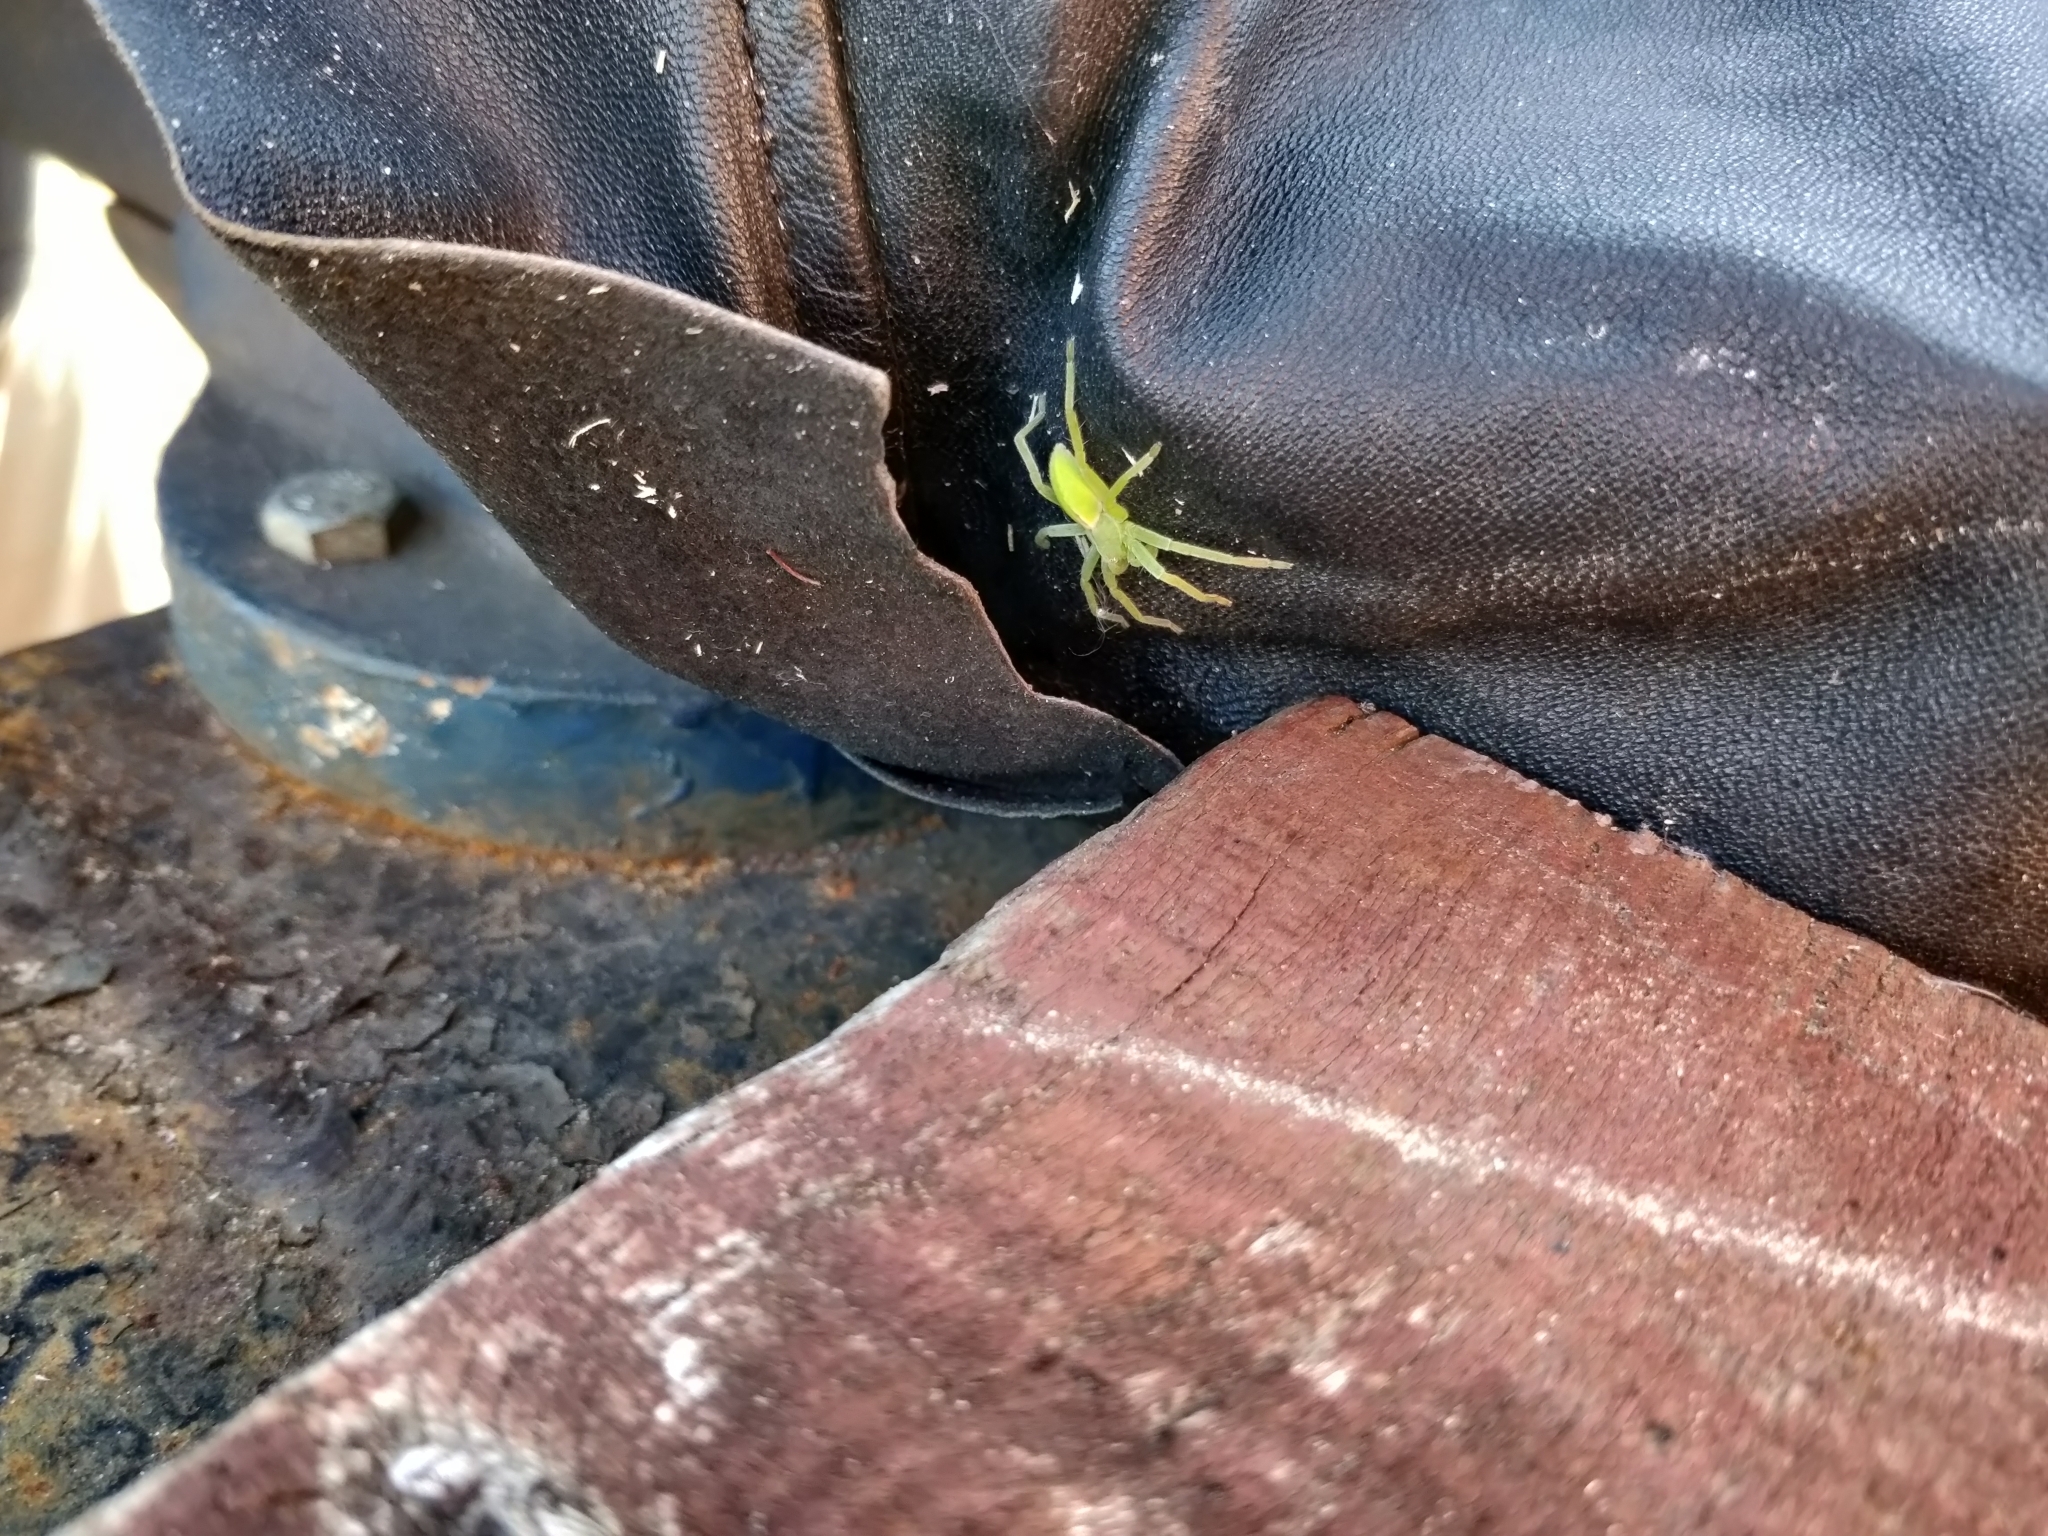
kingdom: Animalia
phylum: Arthropoda
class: Arachnida
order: Araneae
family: Sparassidae
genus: Micrommata
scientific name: Micrommata virescens
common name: Green spider
